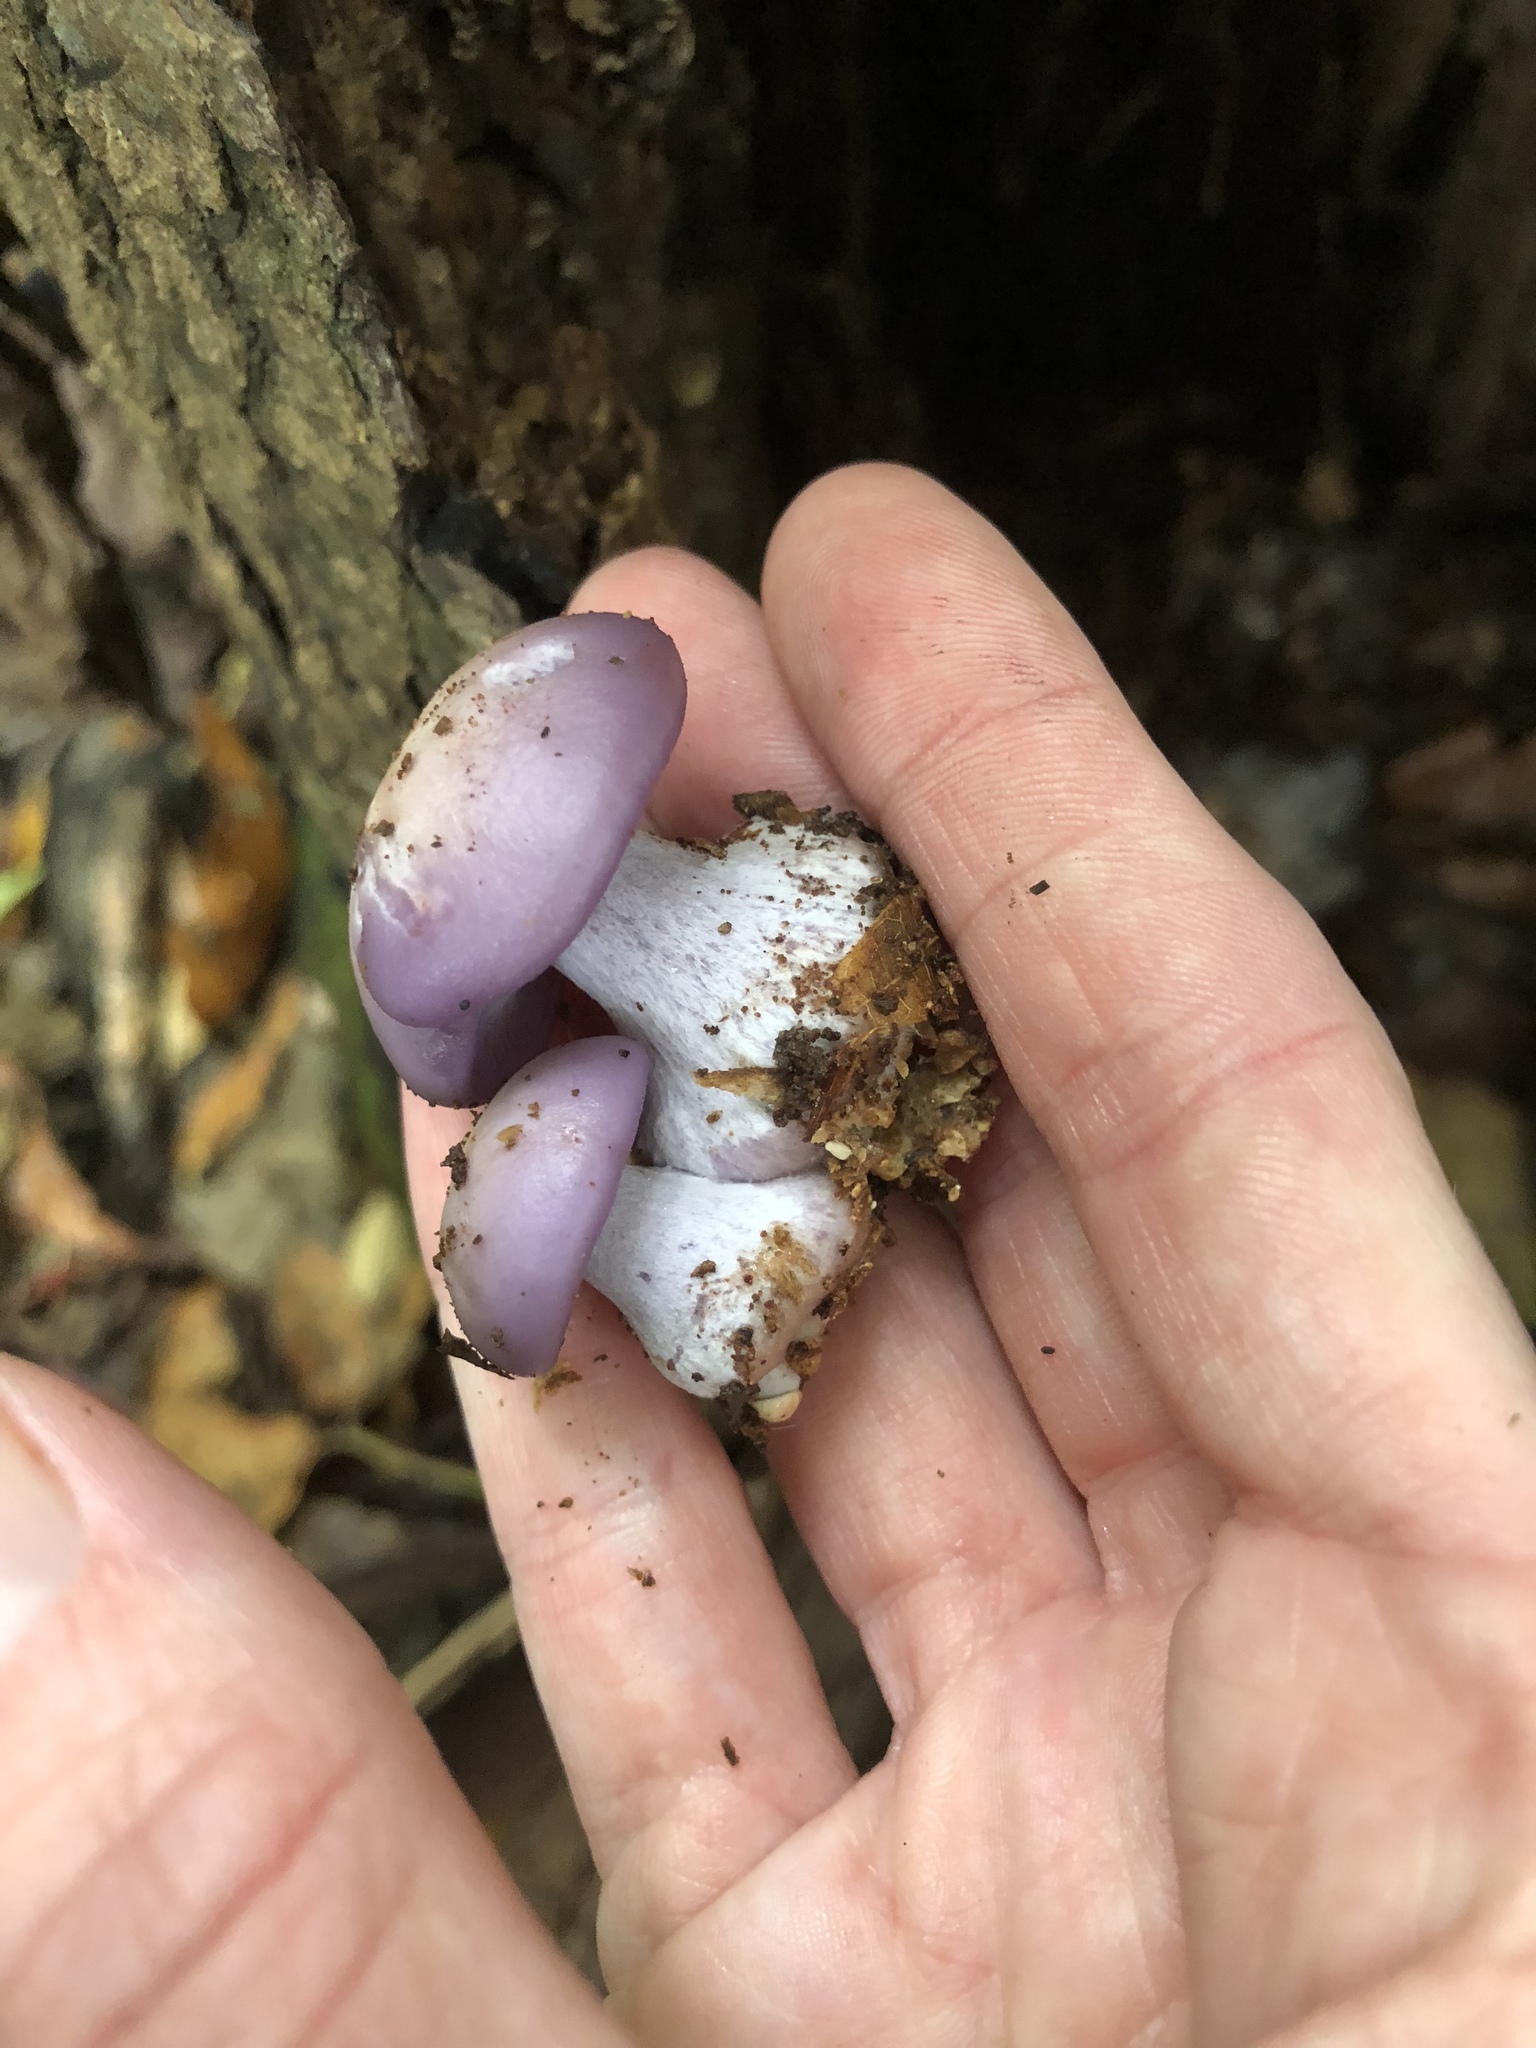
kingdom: Fungi
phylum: Basidiomycota
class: Agaricomycetes
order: Agaricales
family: Tricholomataceae
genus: Collybia
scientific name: Collybia
